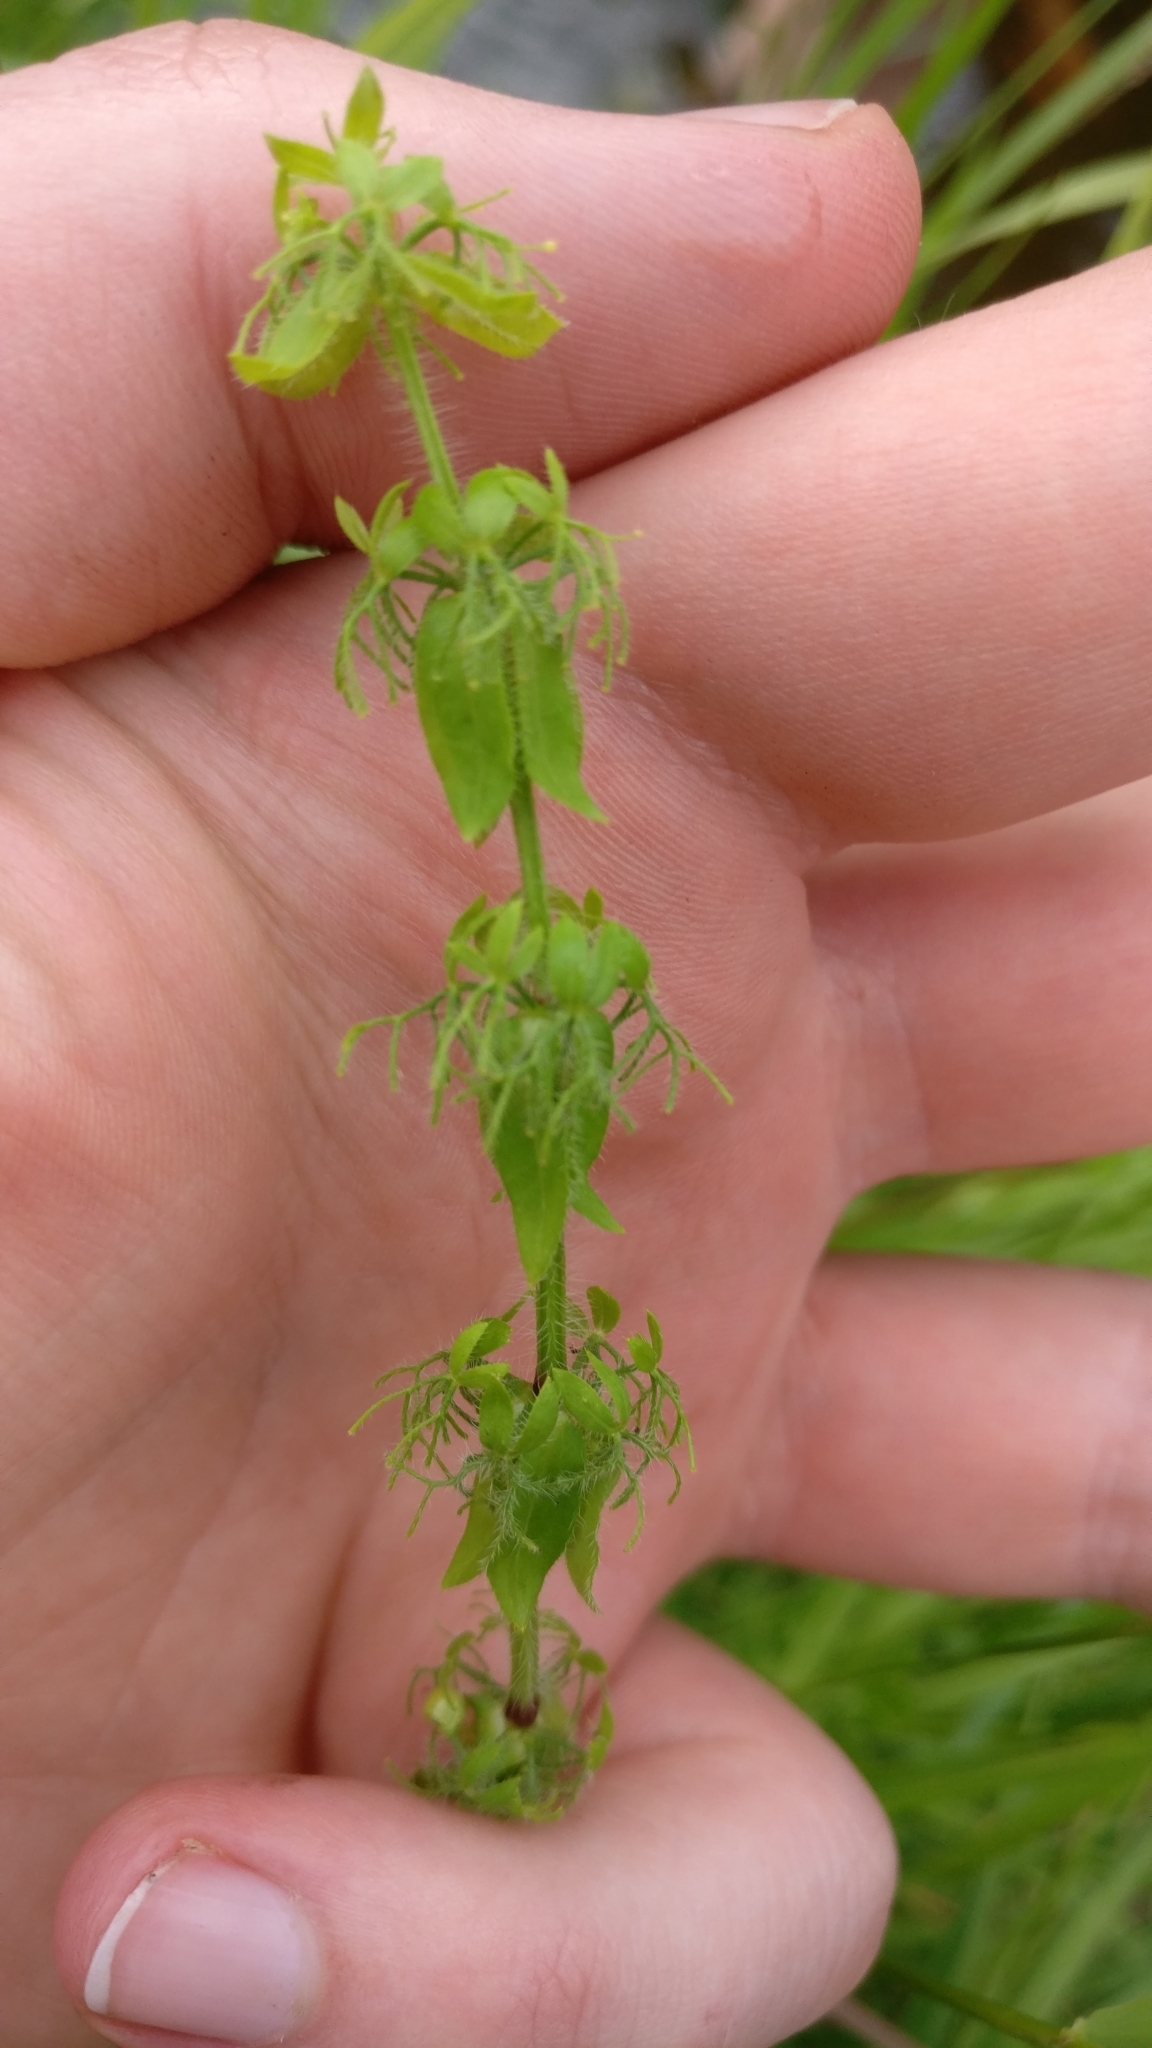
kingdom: Plantae
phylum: Tracheophyta
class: Magnoliopsida
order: Gentianales
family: Rubiaceae
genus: Cruciata
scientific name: Cruciata laevipes
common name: Crosswort
